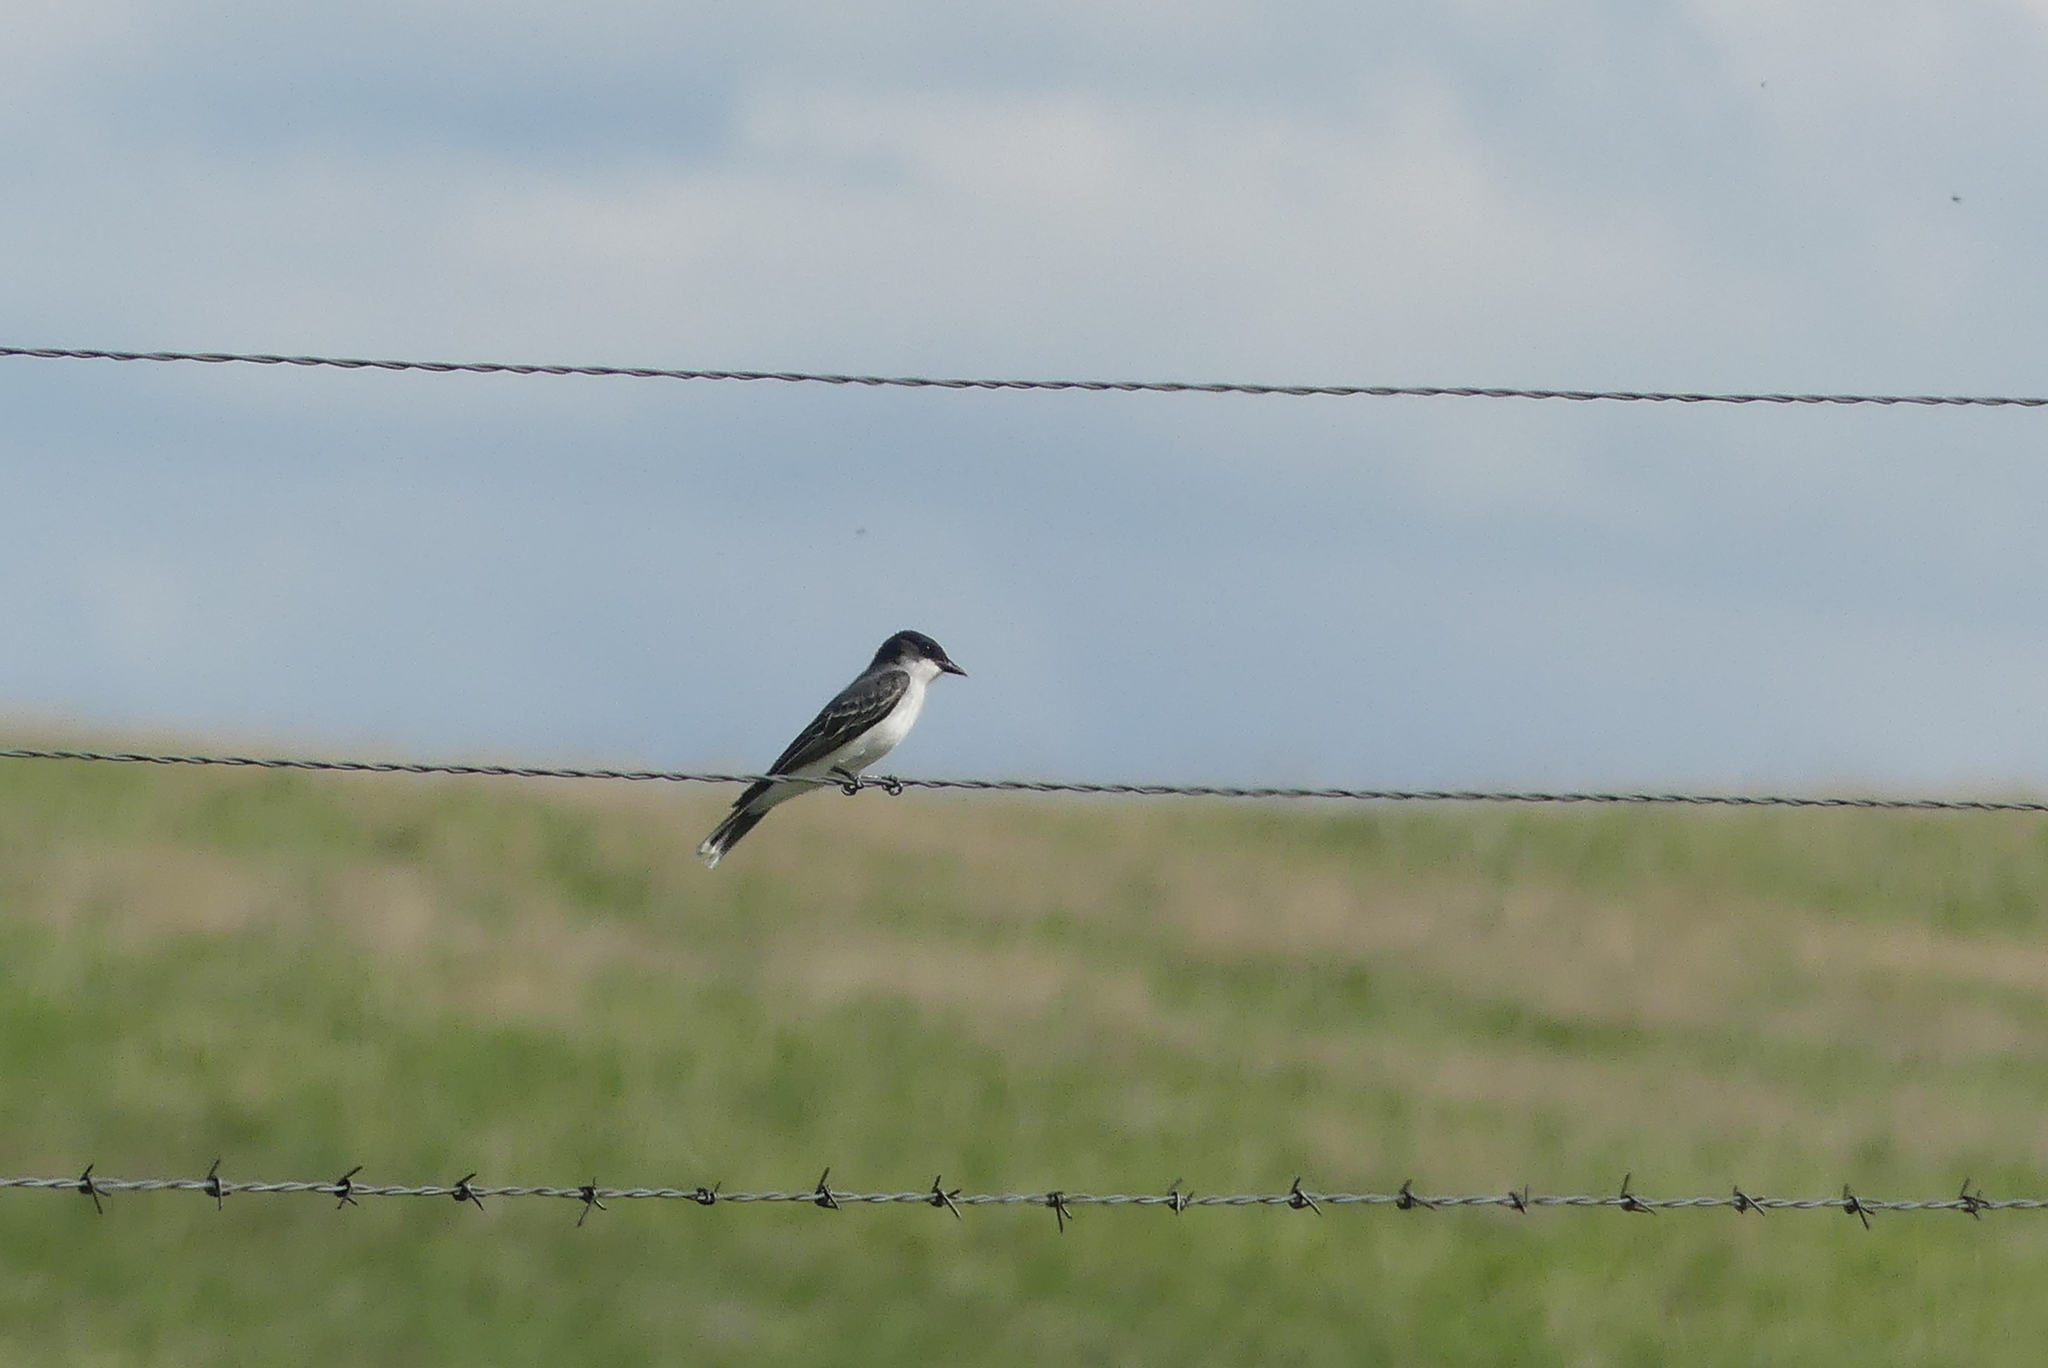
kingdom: Animalia
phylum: Chordata
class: Aves
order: Passeriformes
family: Tyrannidae
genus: Tyrannus
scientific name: Tyrannus tyrannus
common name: Eastern kingbird
